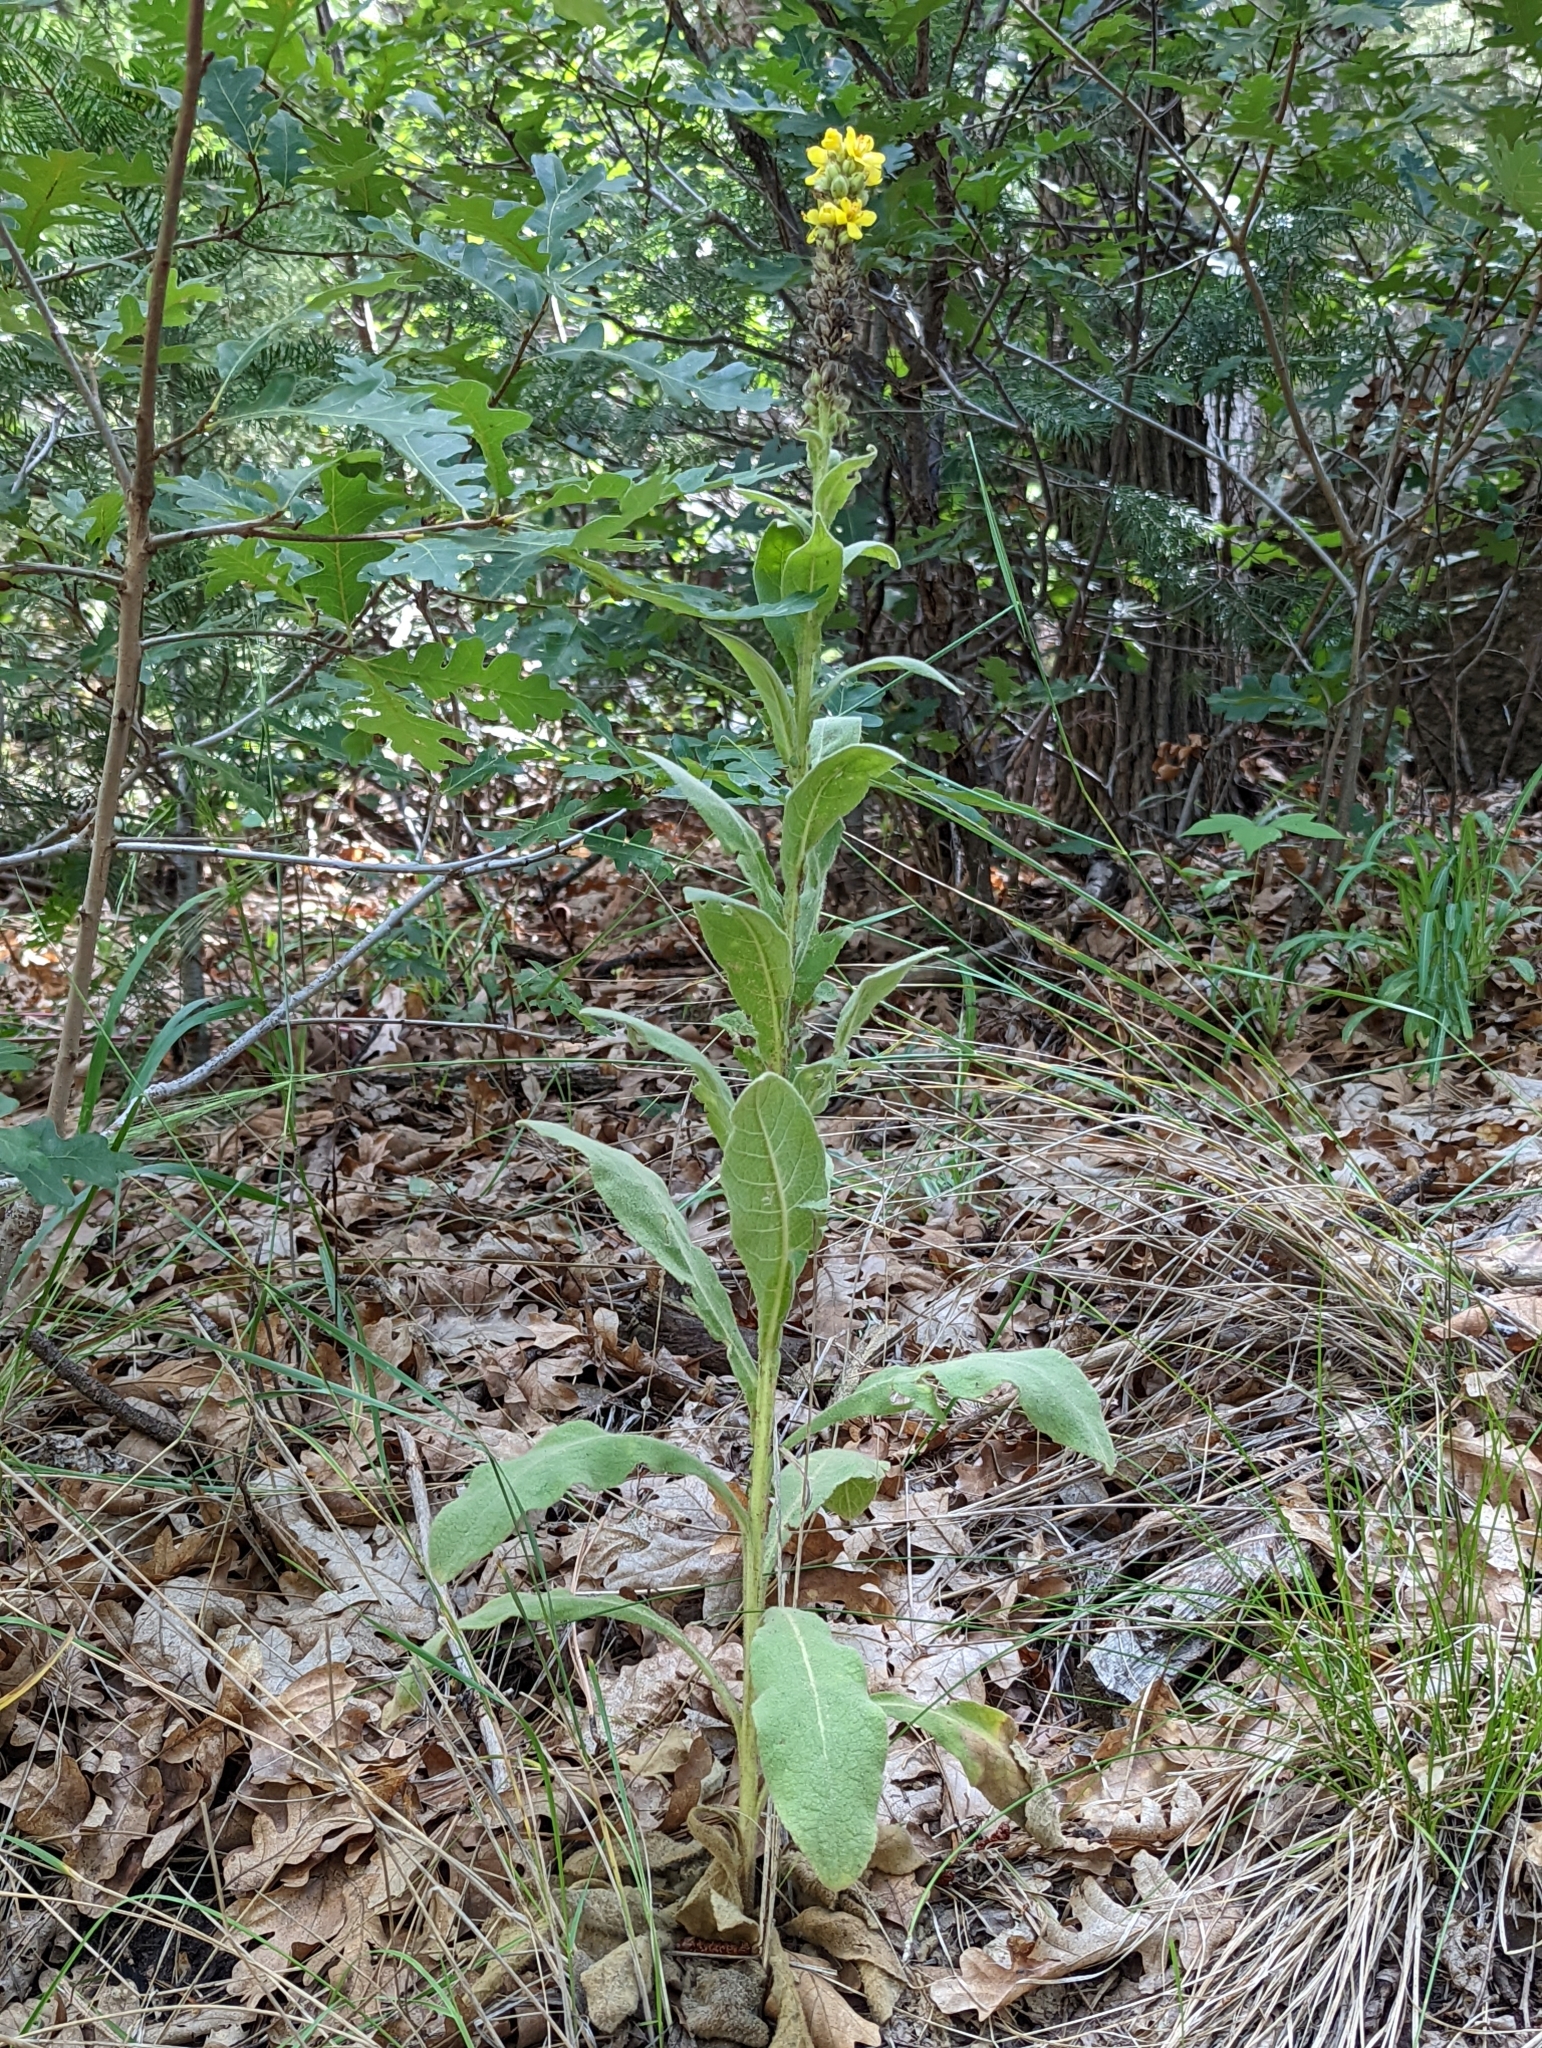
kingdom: Plantae
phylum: Tracheophyta
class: Magnoliopsida
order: Lamiales
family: Scrophulariaceae
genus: Verbascum
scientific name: Verbascum thapsus
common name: Common mullein
